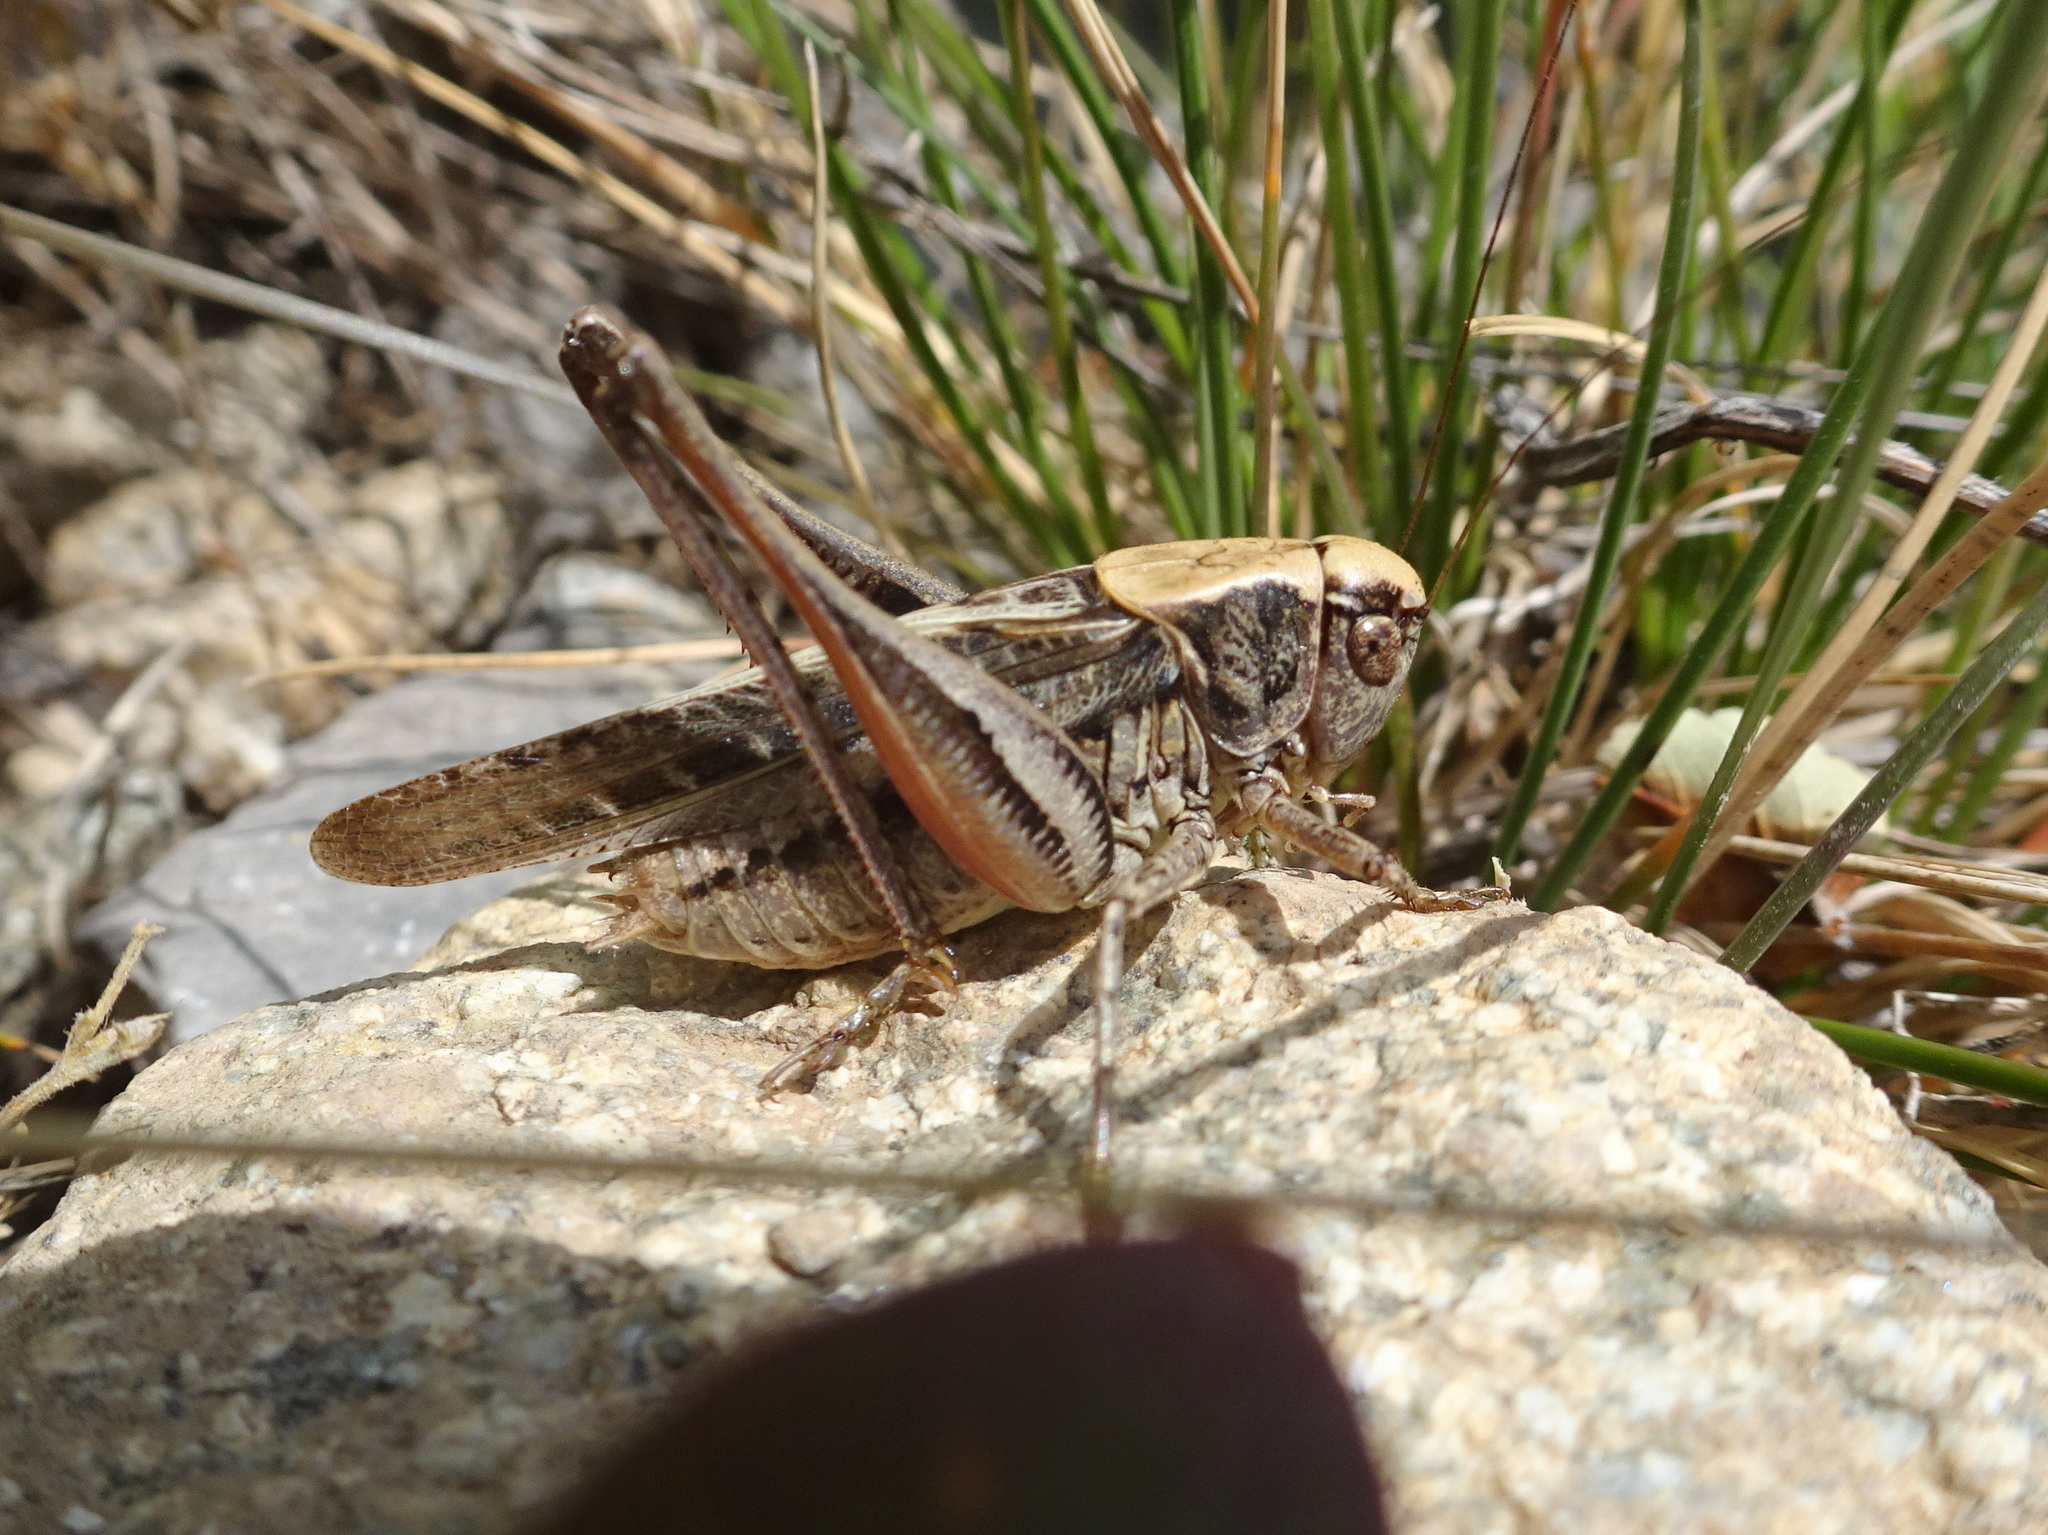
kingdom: Animalia
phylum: Arthropoda
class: Insecta
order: Orthoptera
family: Tettigoniidae
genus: Platycleis
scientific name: Platycleis albopunctata
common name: Grey bush-cricket
